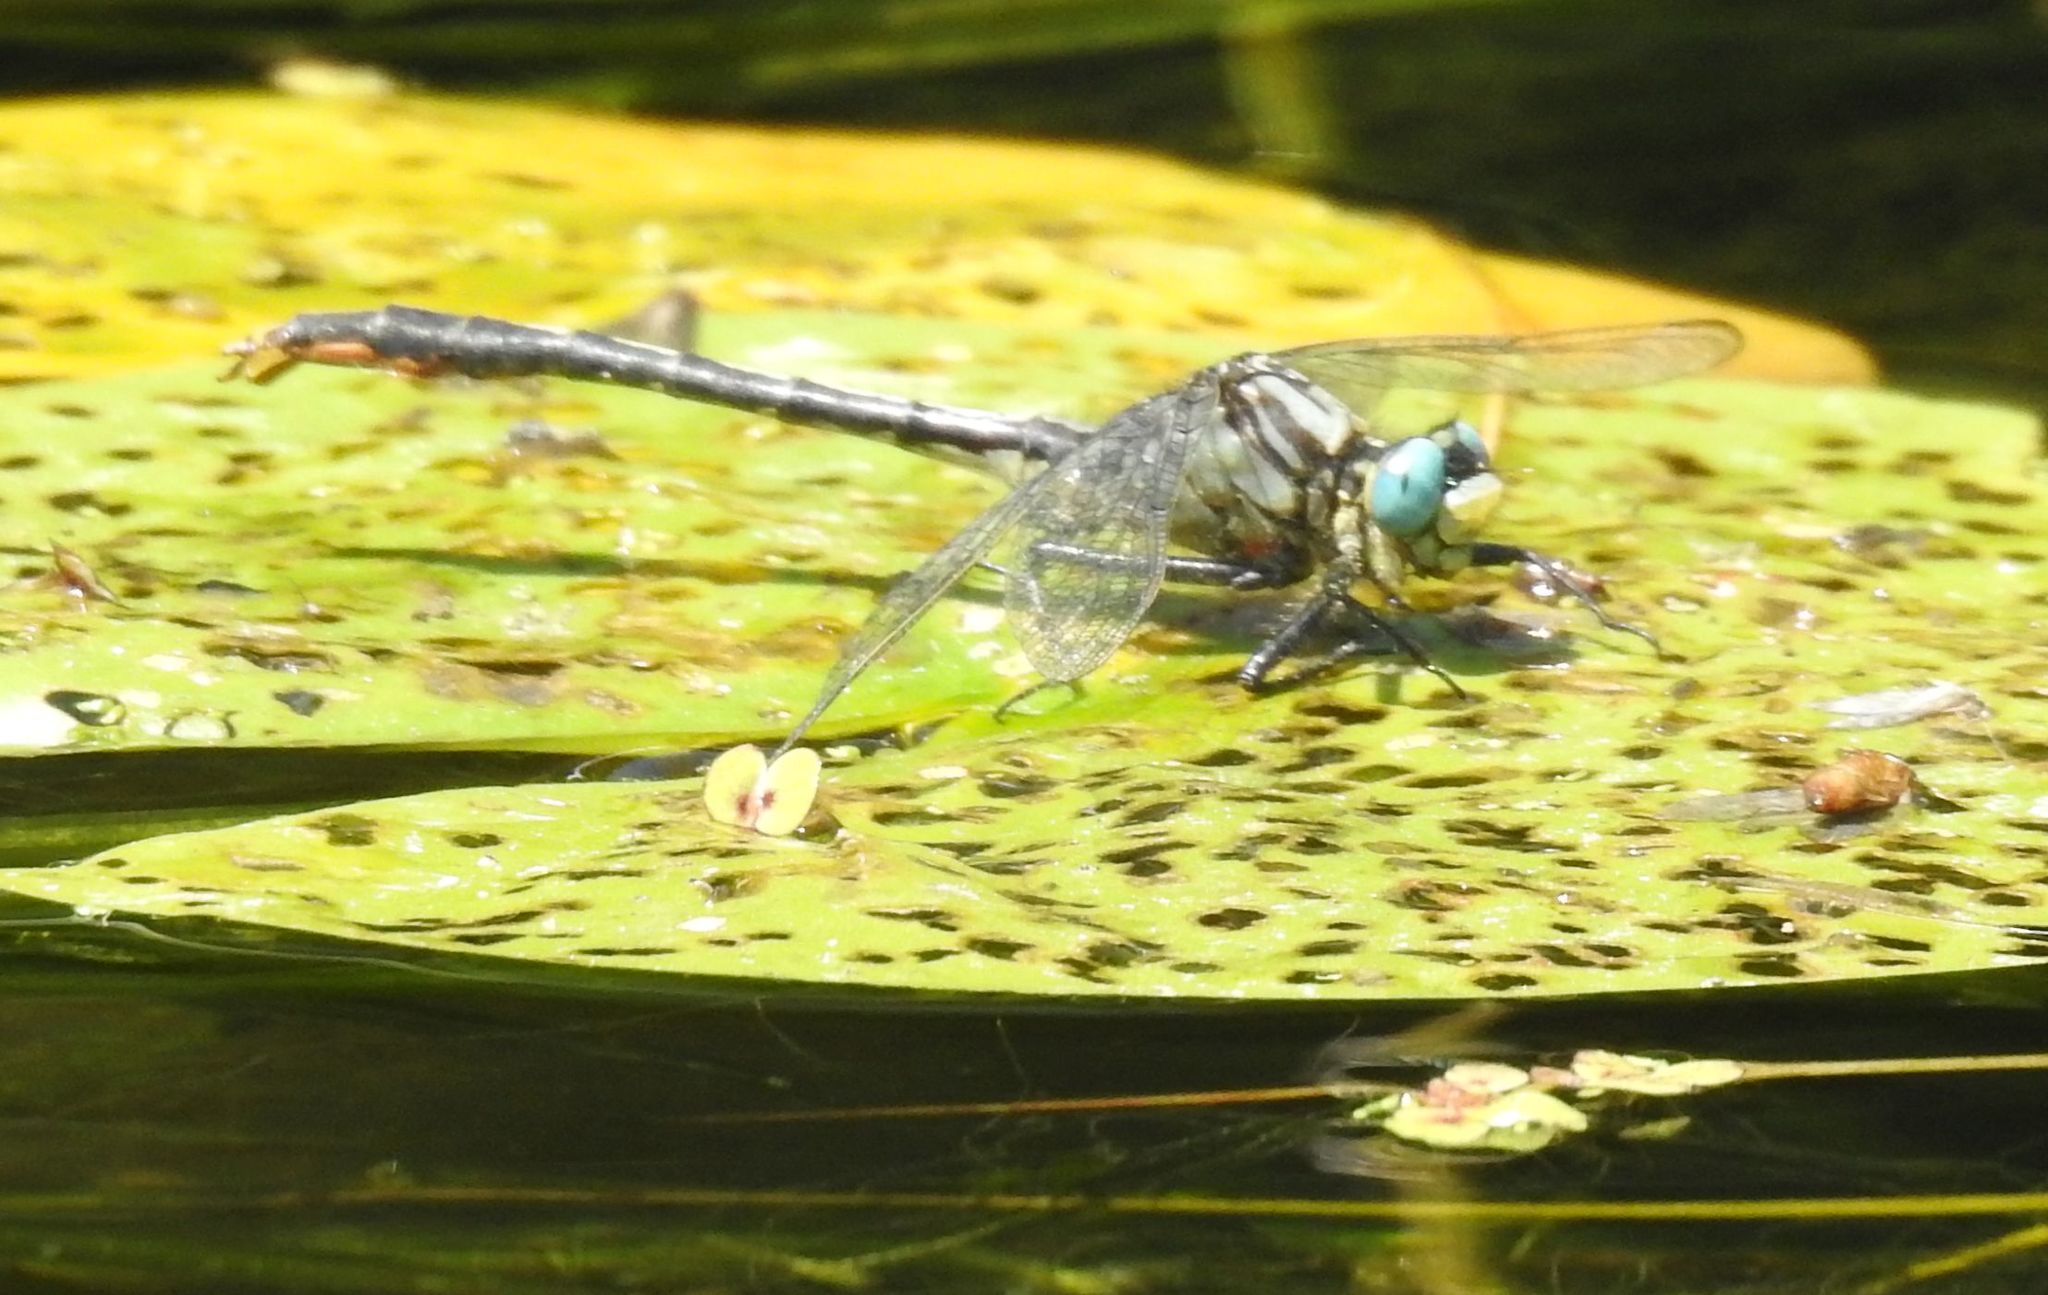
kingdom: Animalia
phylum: Arthropoda
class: Insecta
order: Odonata
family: Gomphidae
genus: Arigomphus
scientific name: Arigomphus furcifer
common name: Lilypad clubtail
